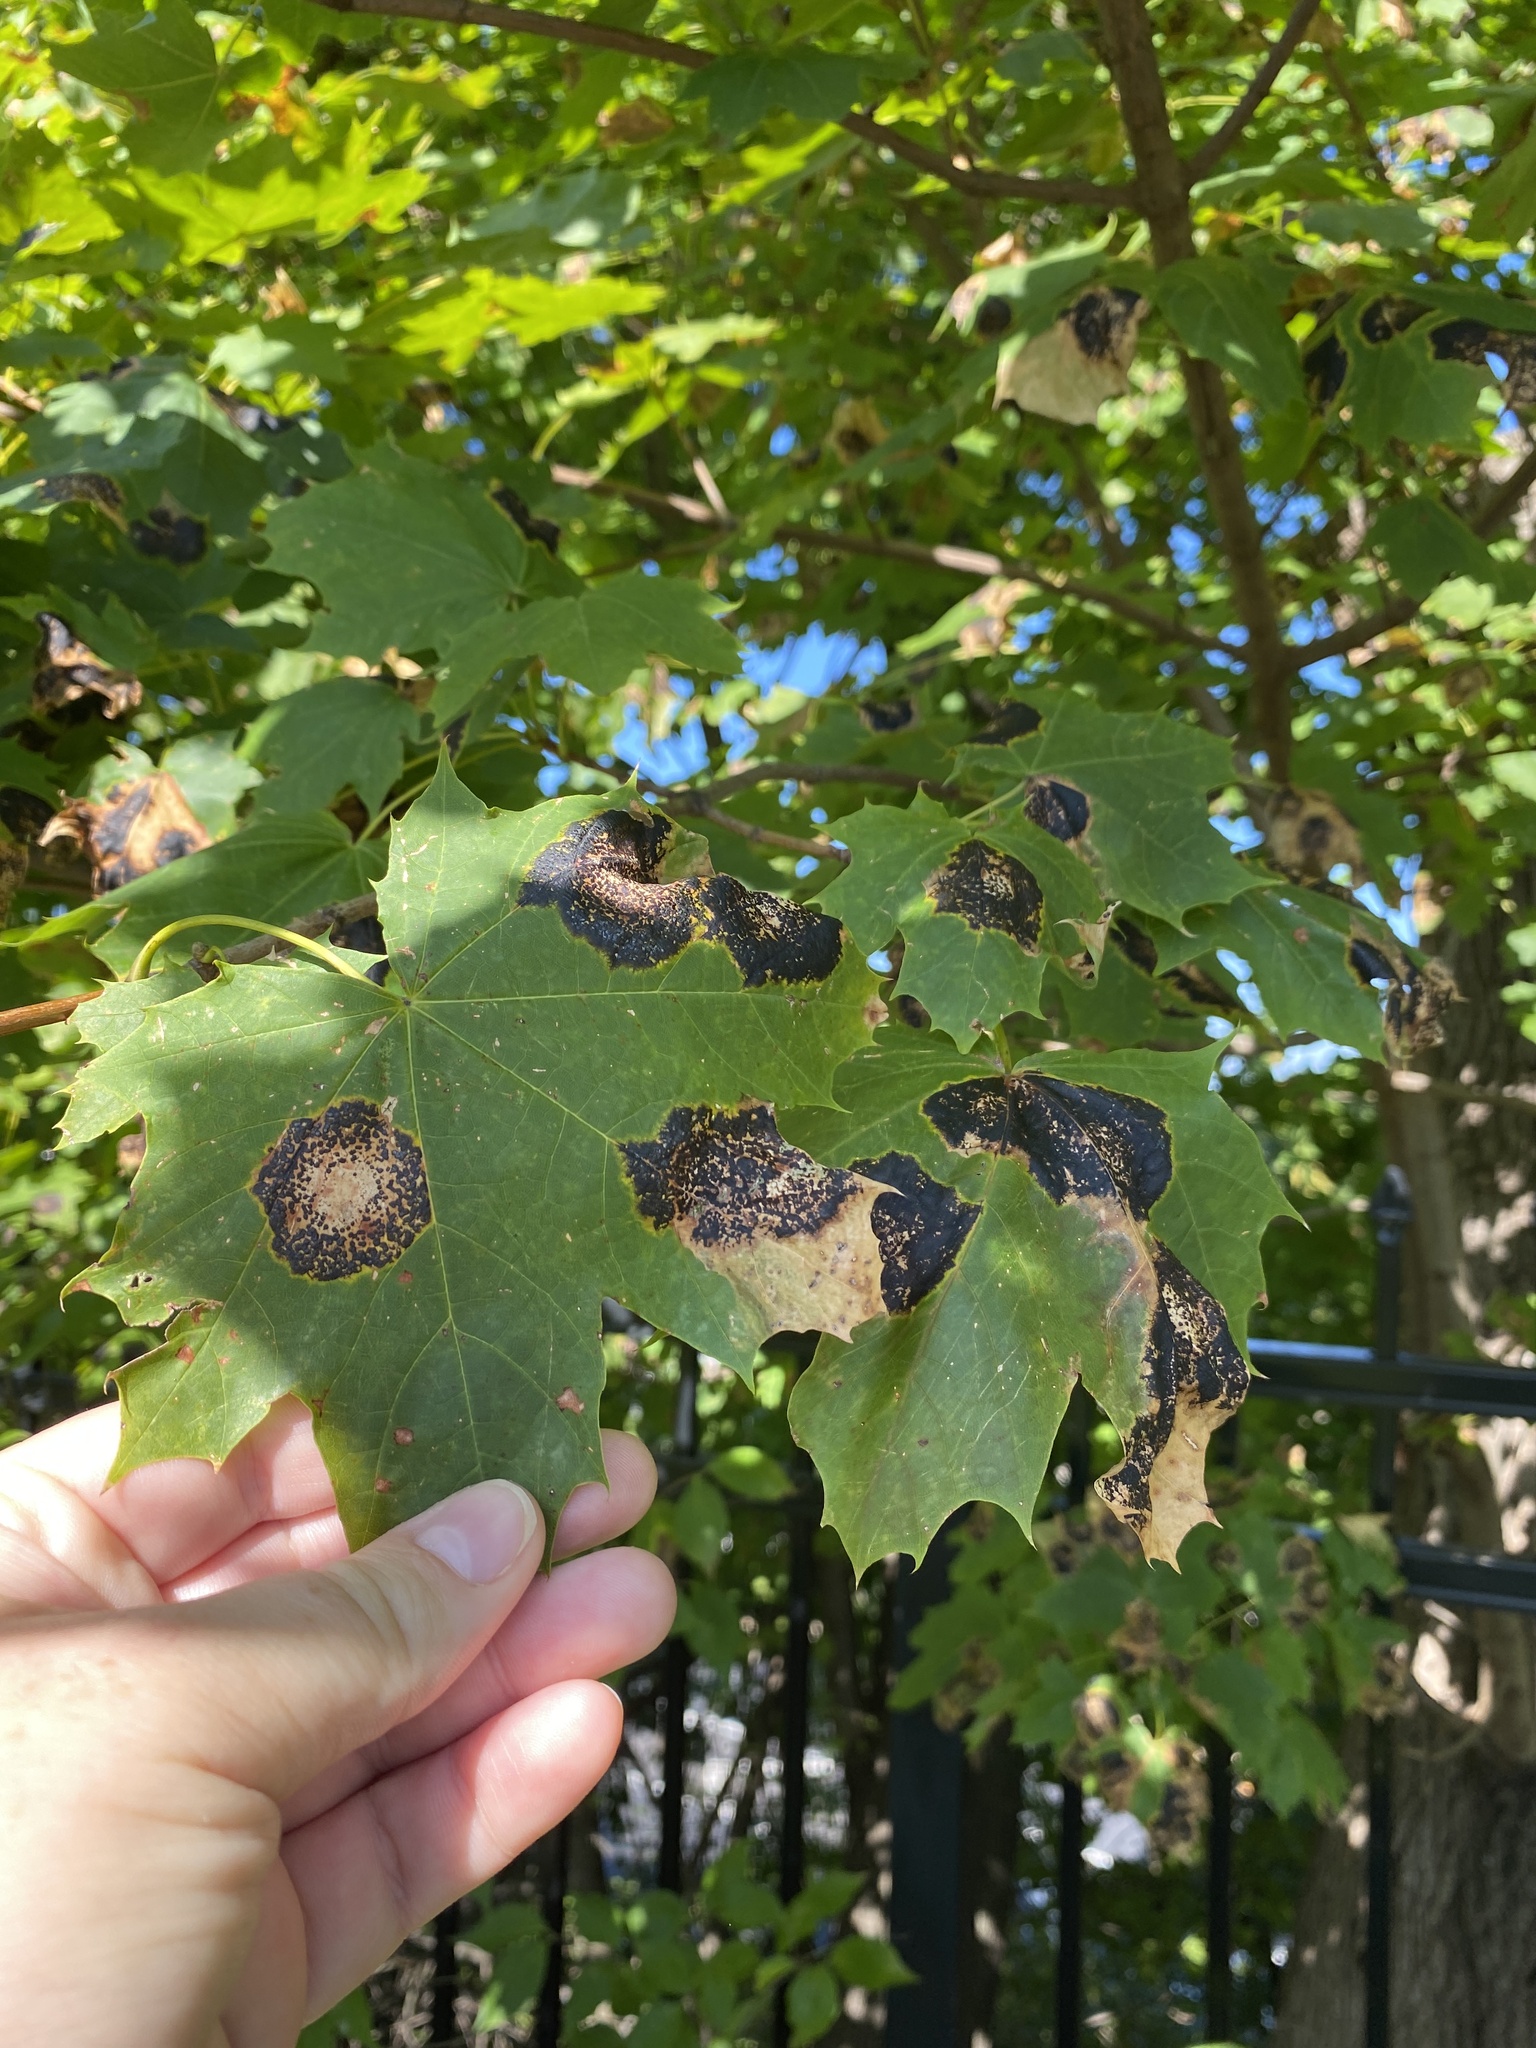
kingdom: Fungi
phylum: Ascomycota
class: Leotiomycetes
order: Rhytismatales
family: Rhytismataceae
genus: Rhytisma
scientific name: Rhytisma acerinum
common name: European tar spot
